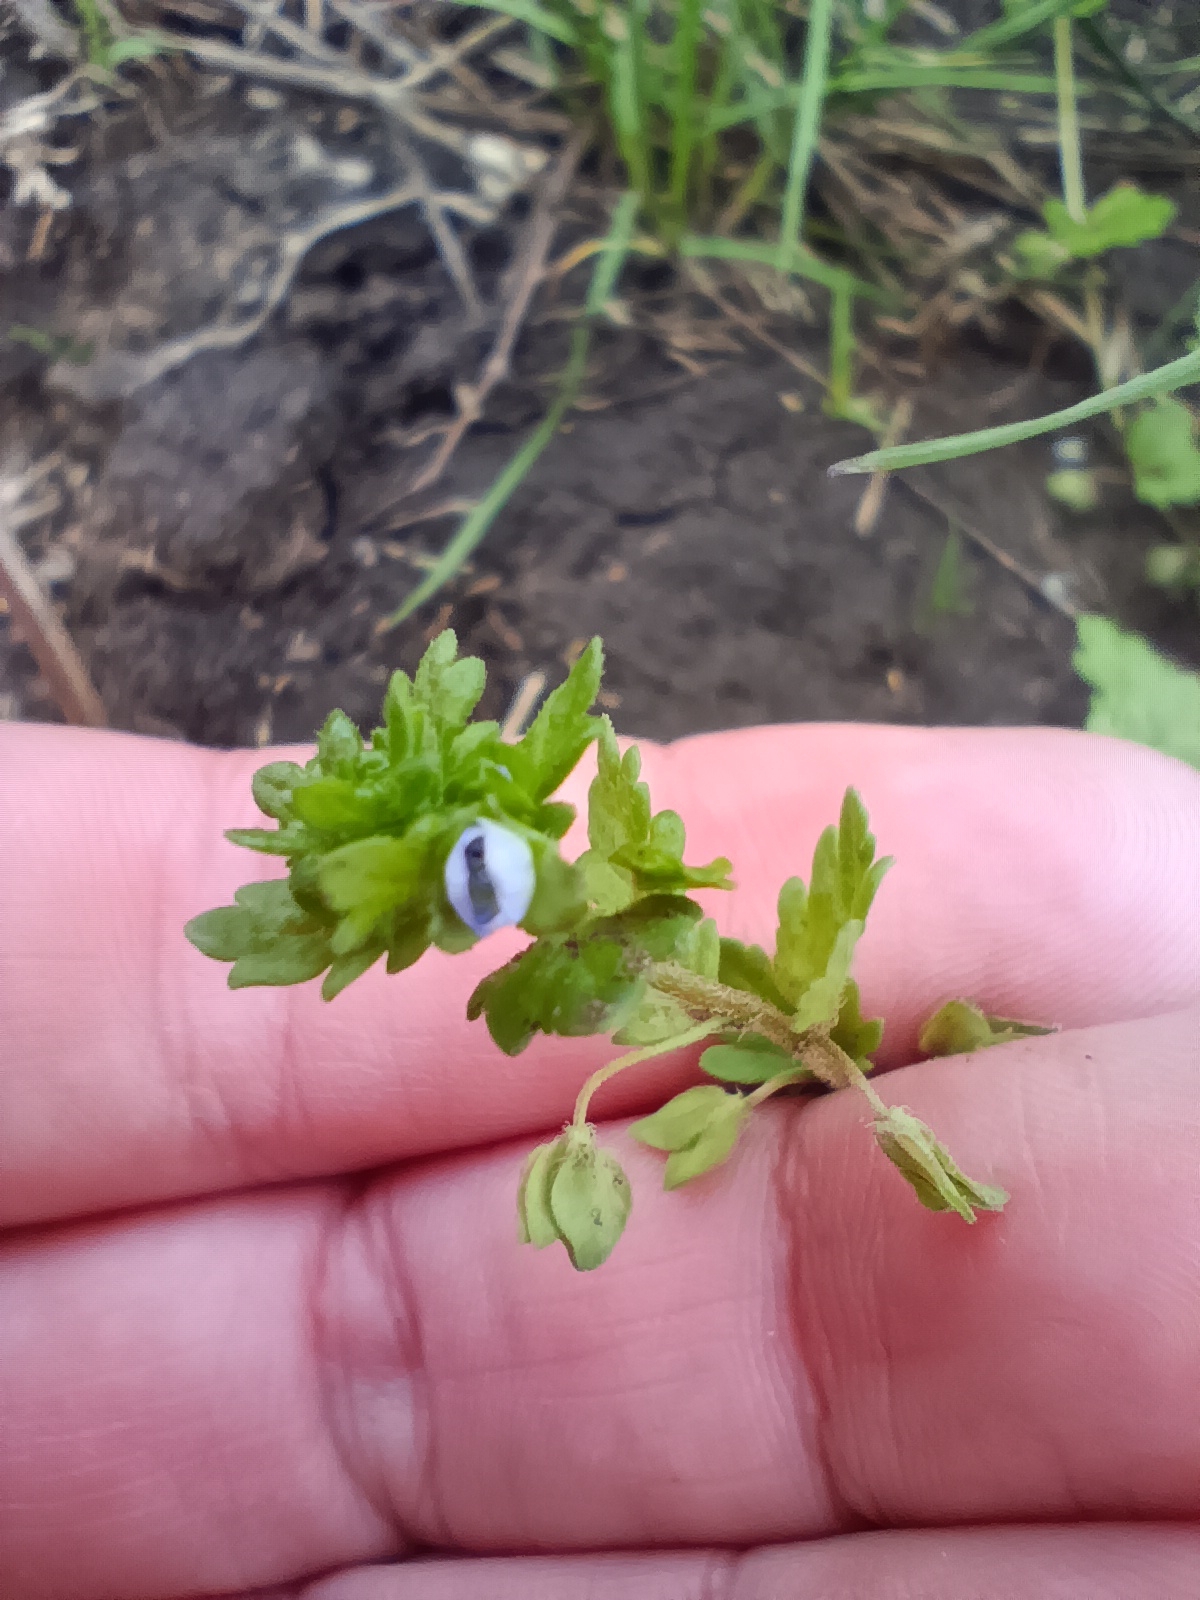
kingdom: Plantae
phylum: Tracheophyta
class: Magnoliopsida
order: Lamiales
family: Plantaginaceae
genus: Veronica
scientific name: Veronica polita
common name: Grey field-speedwell
